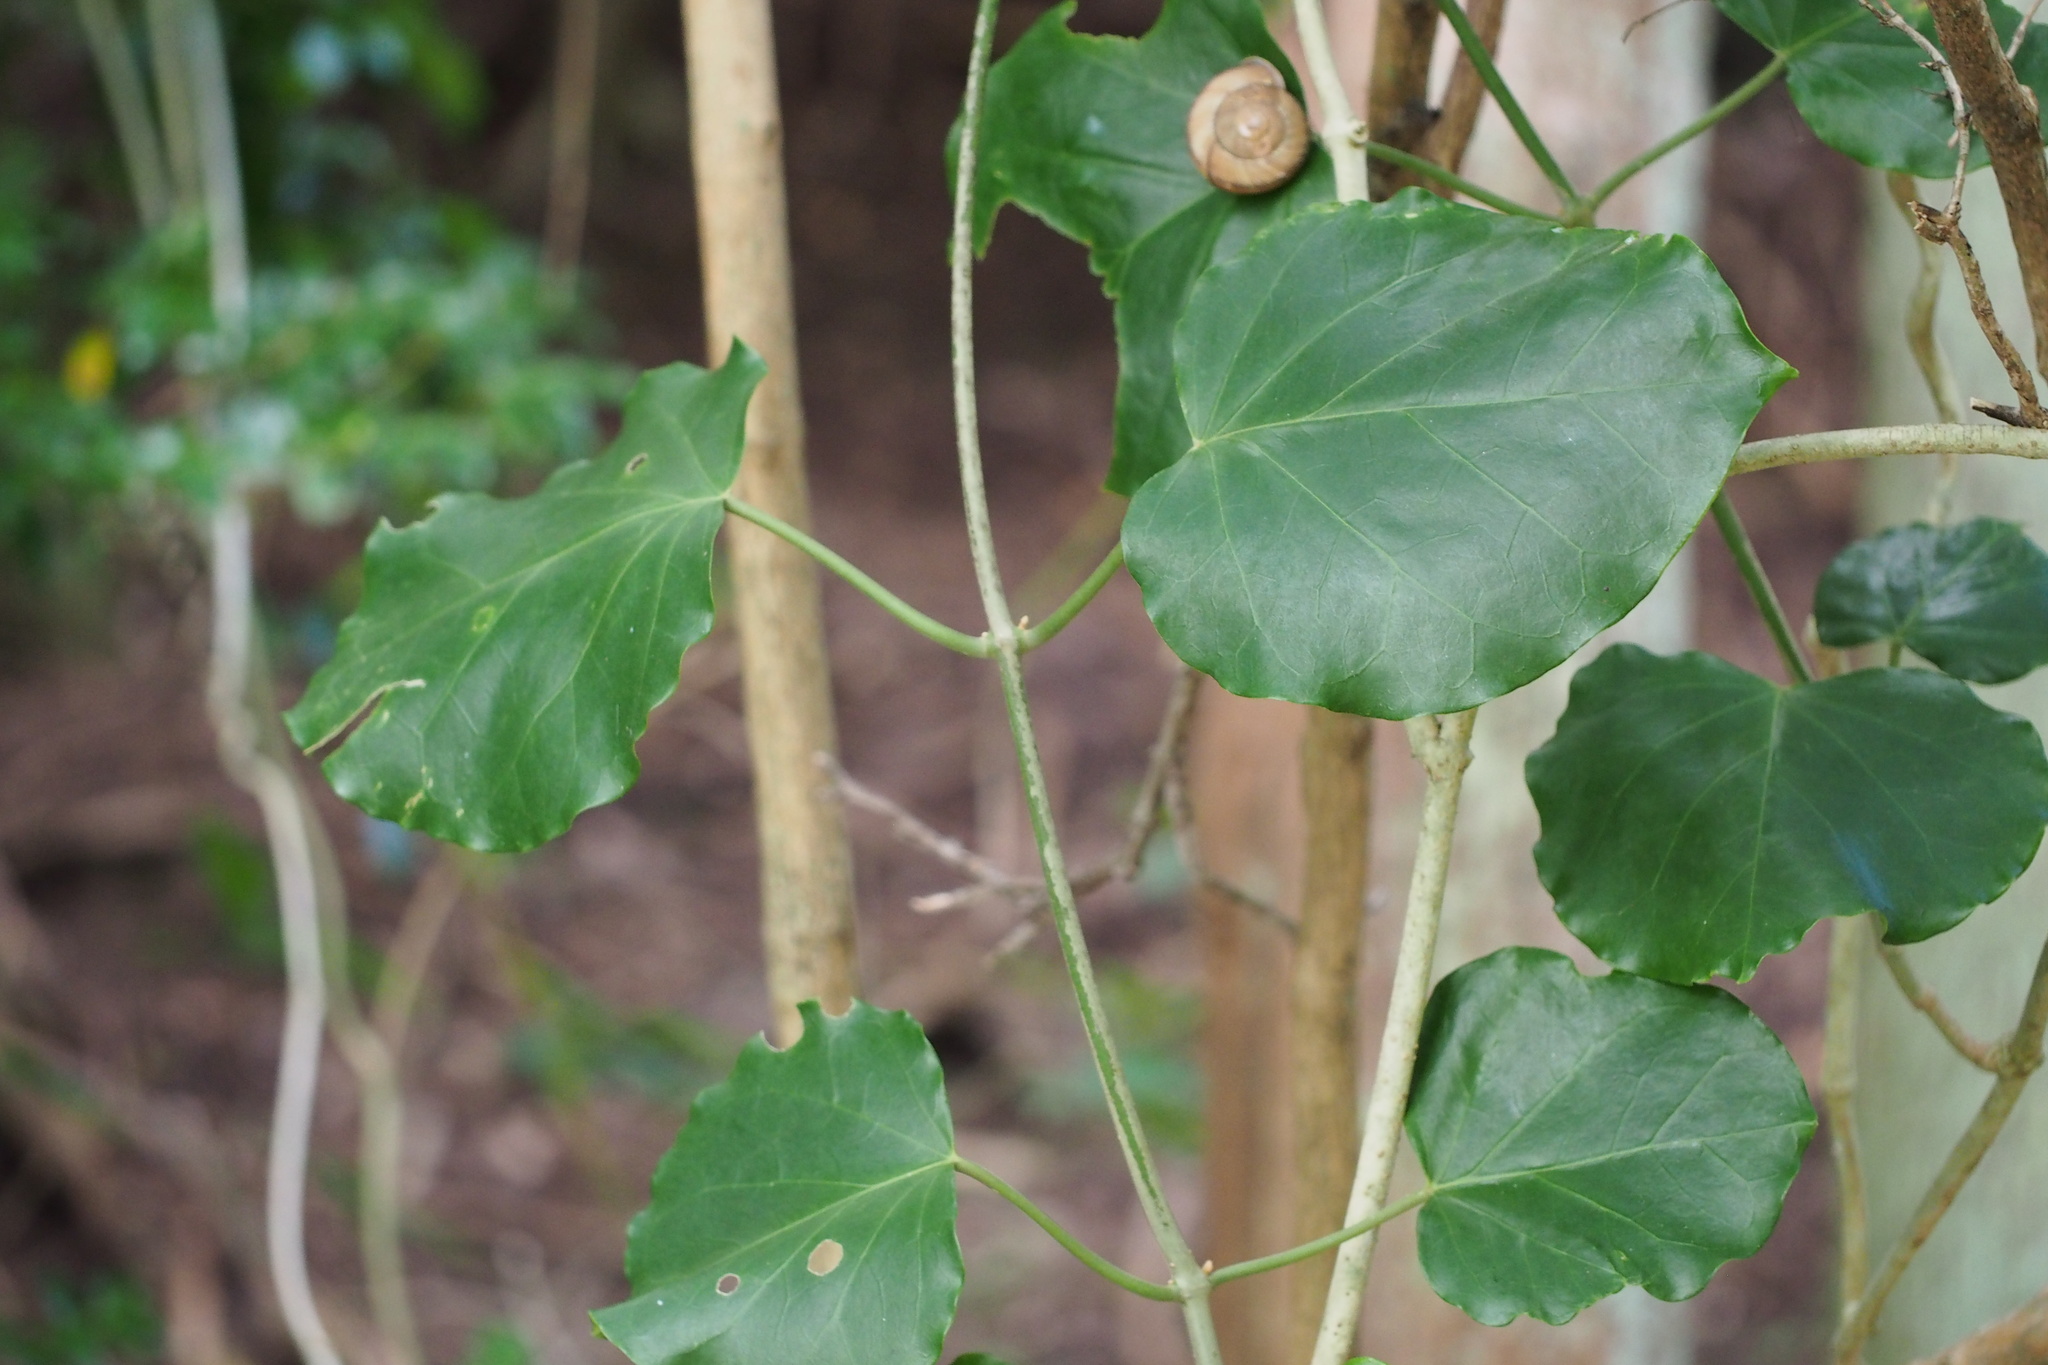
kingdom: Plantae
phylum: Tracheophyta
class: Magnoliopsida
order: Gentianales
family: Apocynaceae
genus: Sinomarsdenia
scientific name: Sinomarsdenia tomentosa
